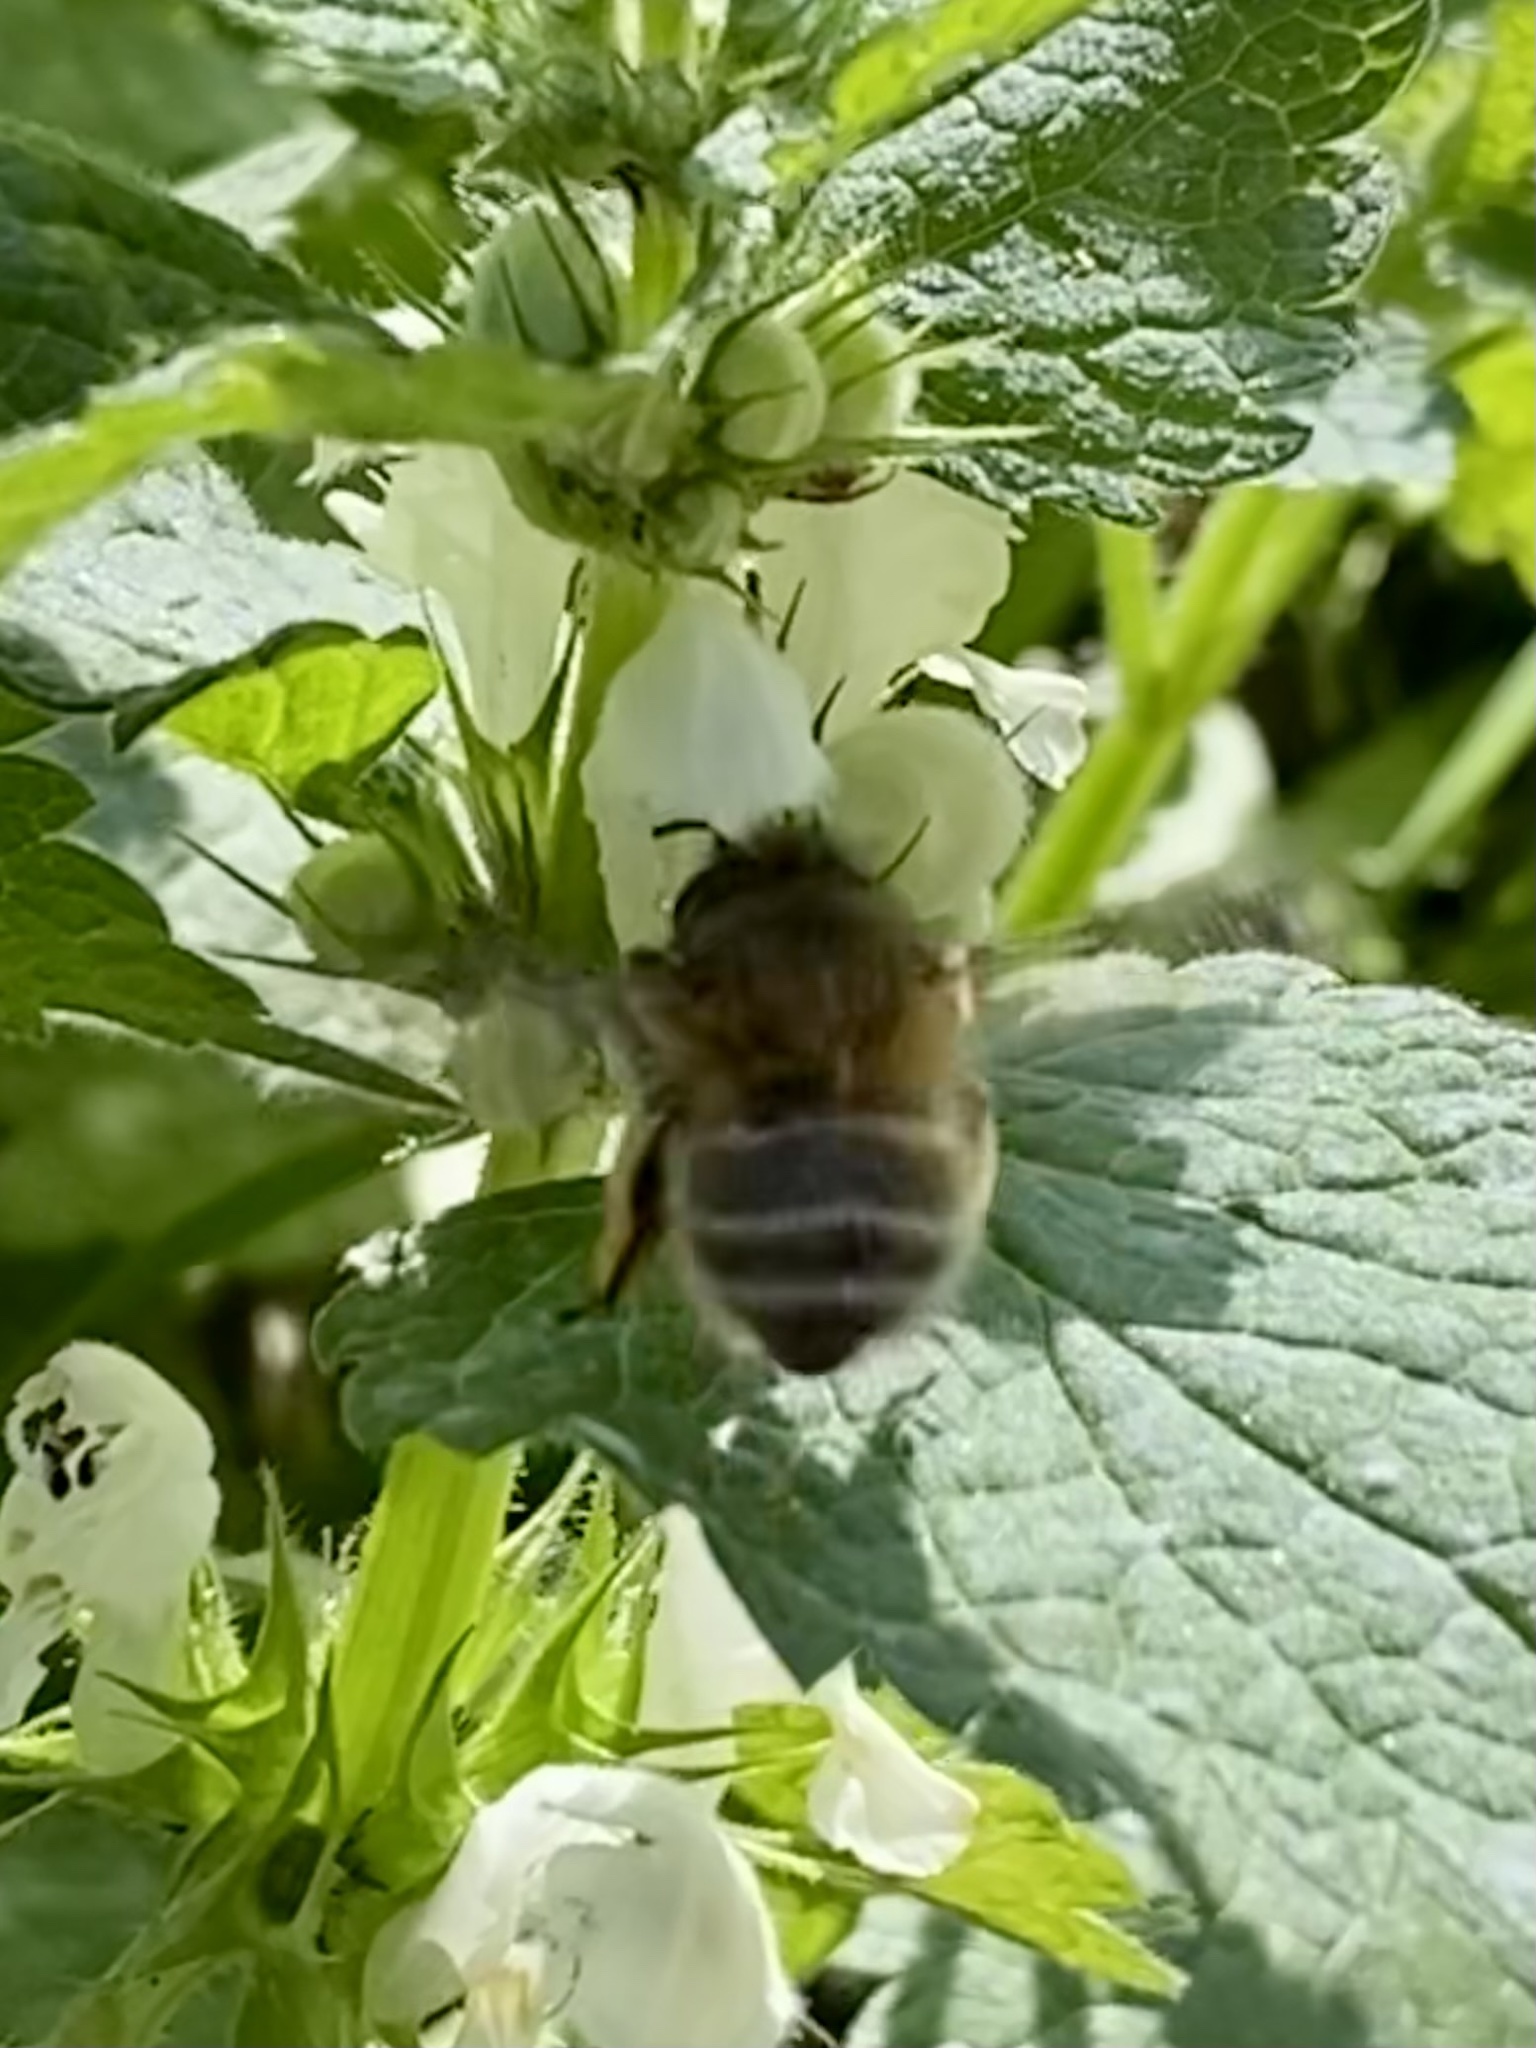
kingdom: Animalia
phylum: Arthropoda
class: Insecta
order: Hymenoptera
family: Apidae
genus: Anthophora
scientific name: Anthophora plumipes
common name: Hairy-footed flower bee
